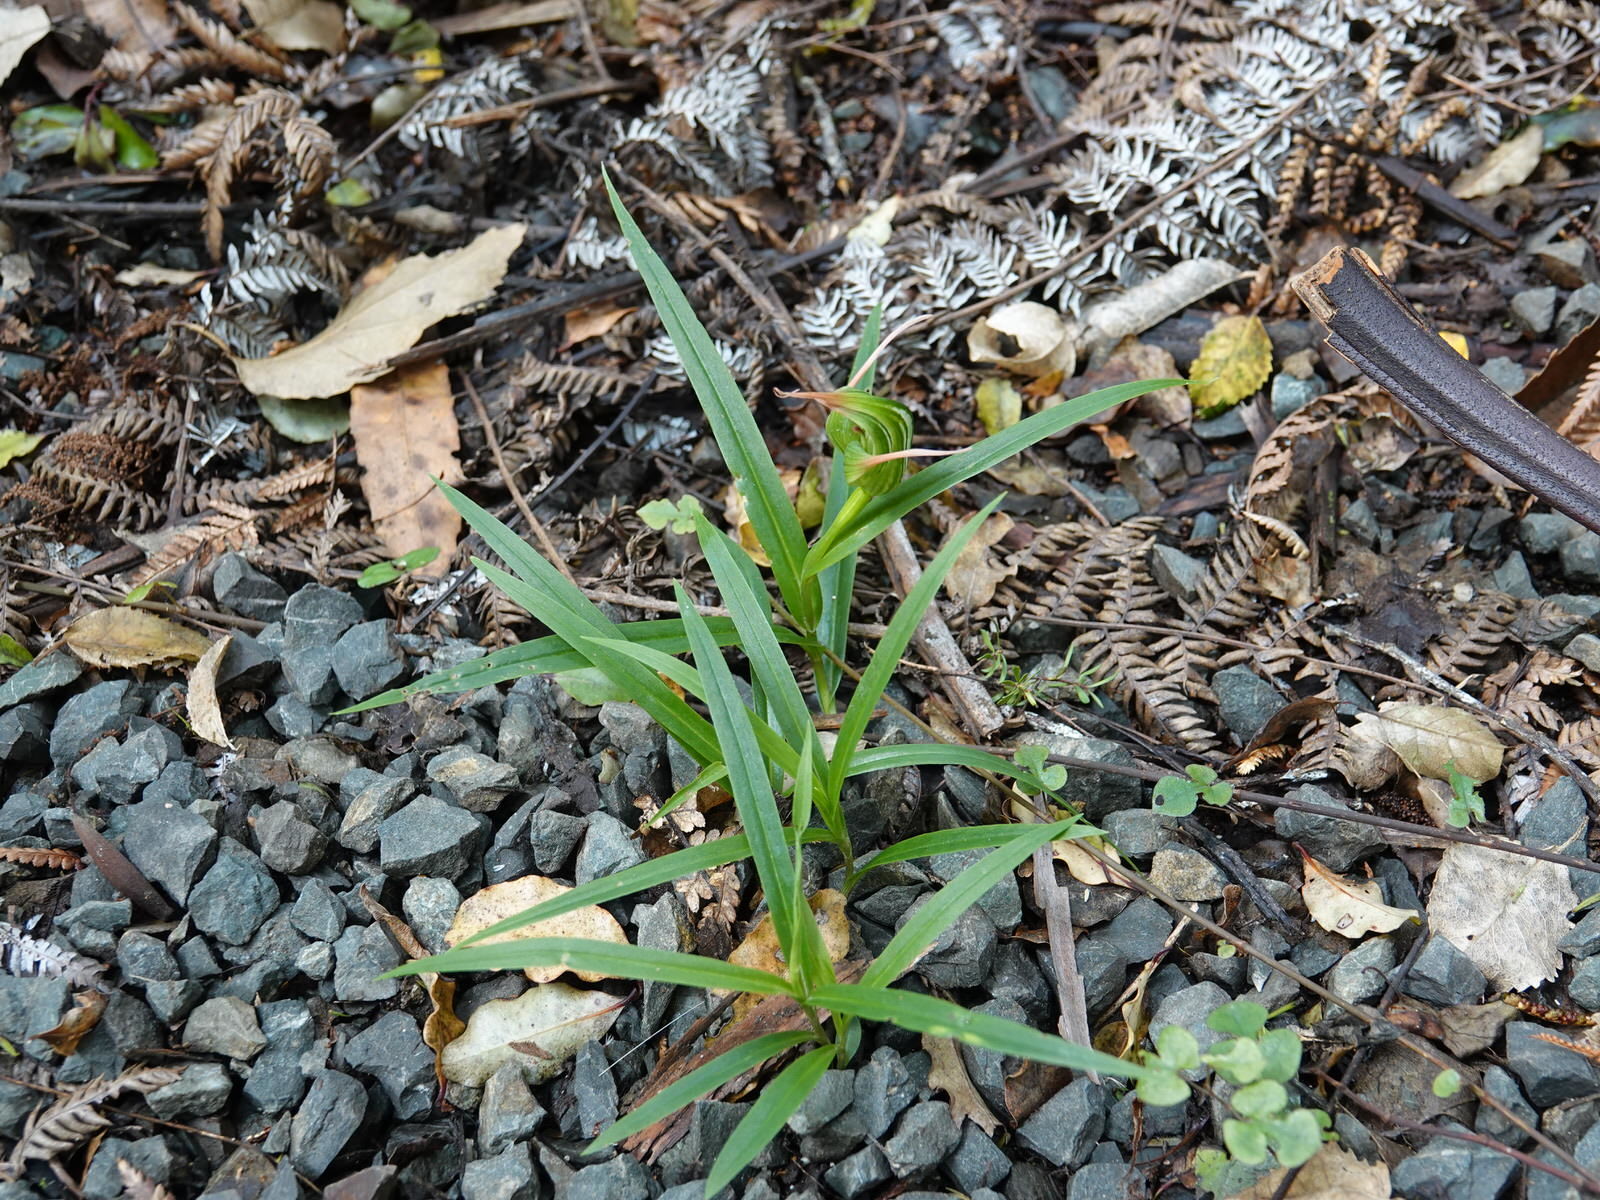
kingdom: Plantae
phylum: Tracheophyta
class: Liliopsida
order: Asparagales
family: Orchidaceae
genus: Pterostylis
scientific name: Pterostylis banksii
